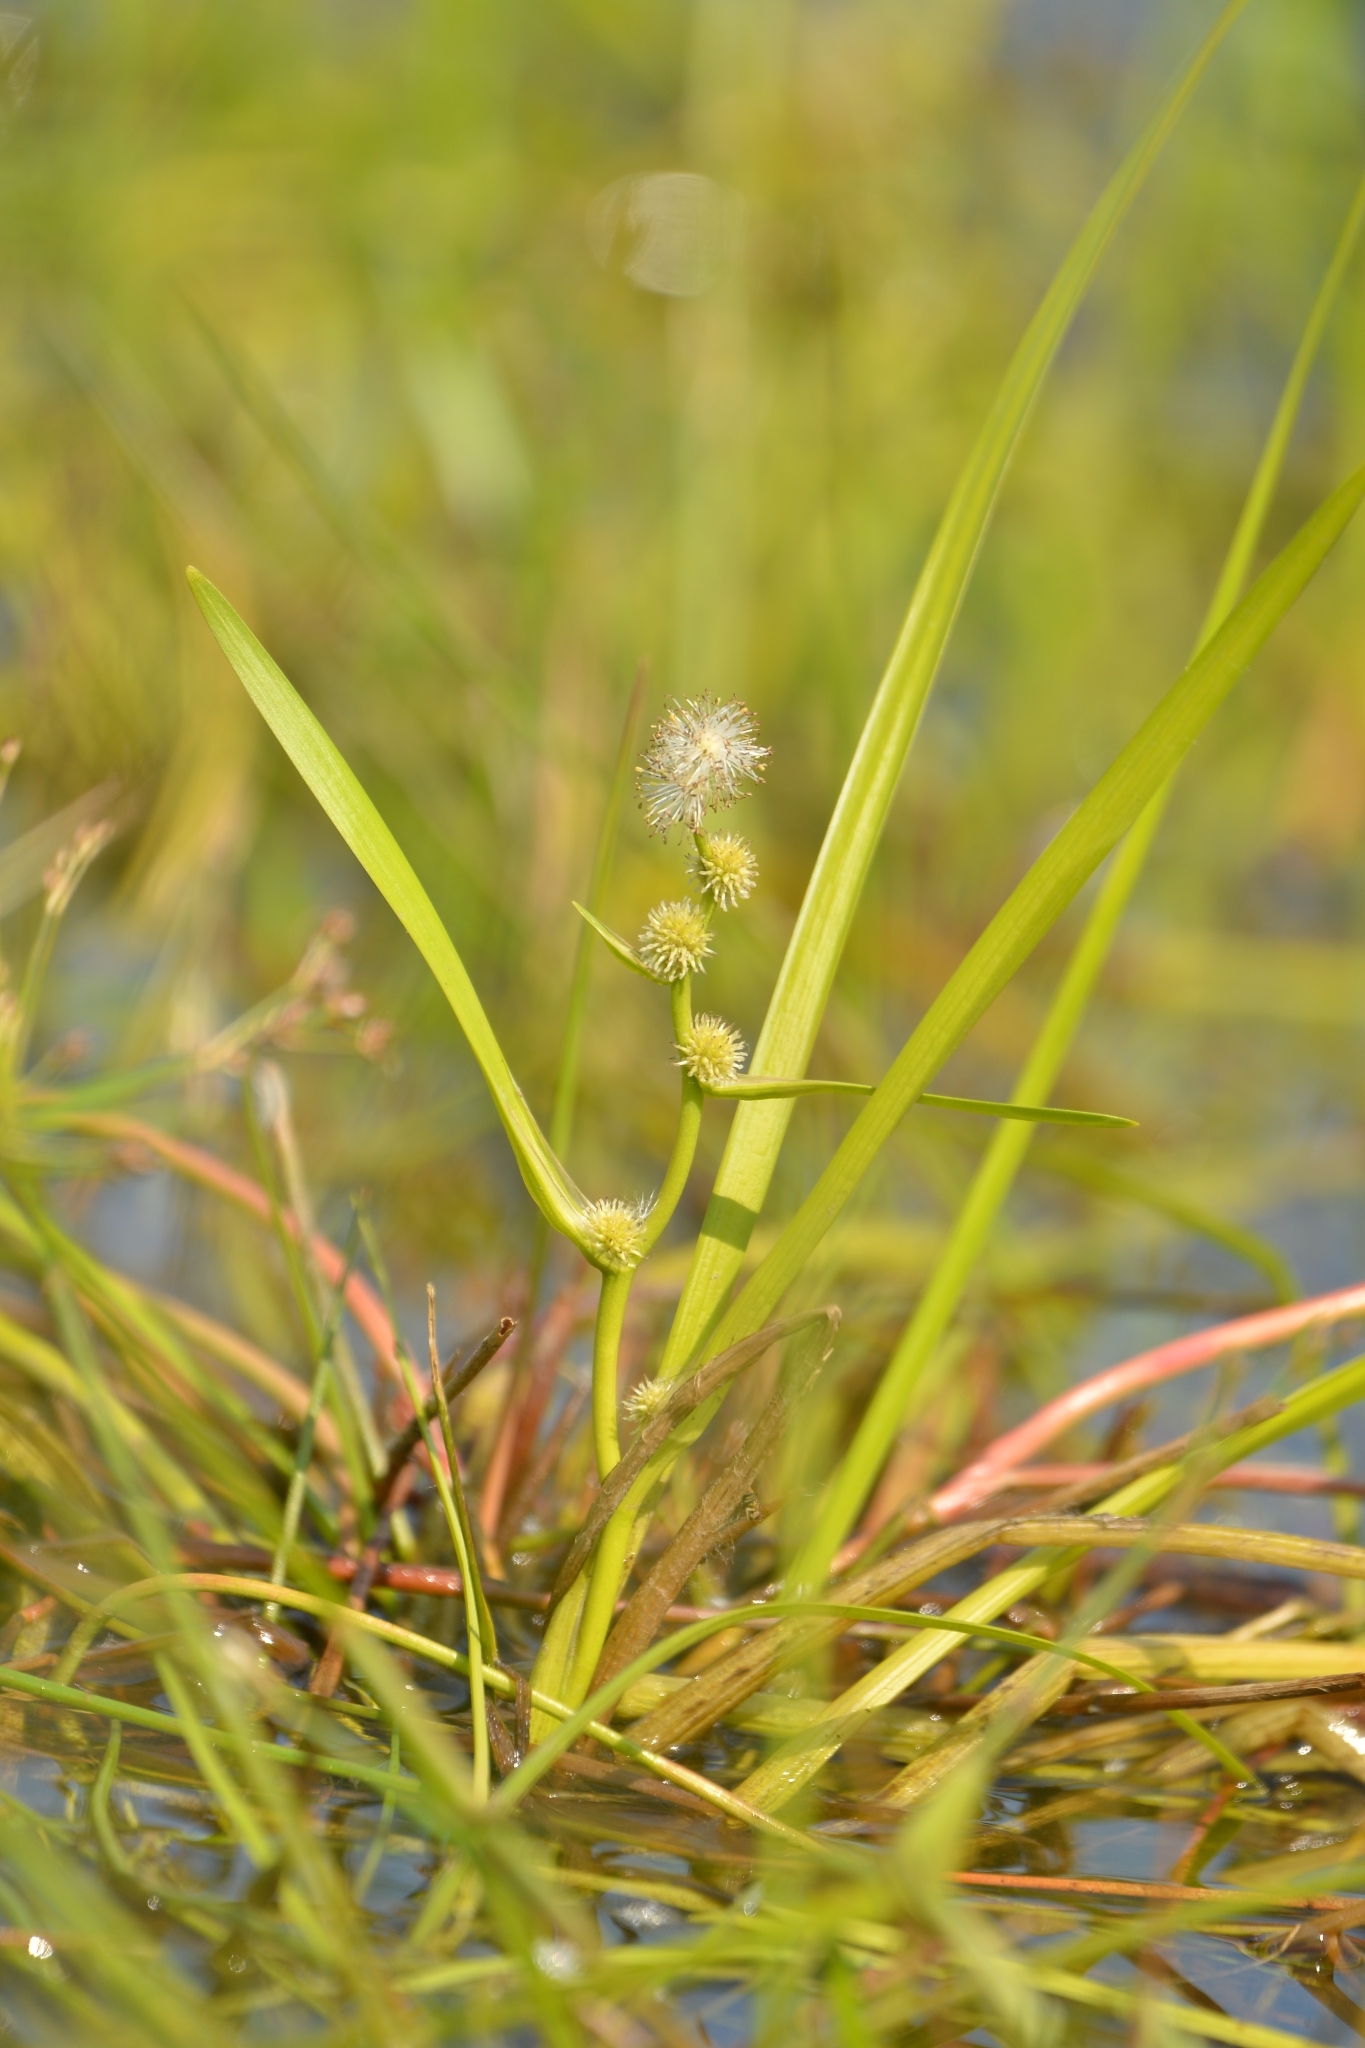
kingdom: Plantae
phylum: Tracheophyta
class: Liliopsida
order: Poales
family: Typhaceae
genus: Sparganium
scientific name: Sparganium angustifolium
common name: Floating bur-reed
